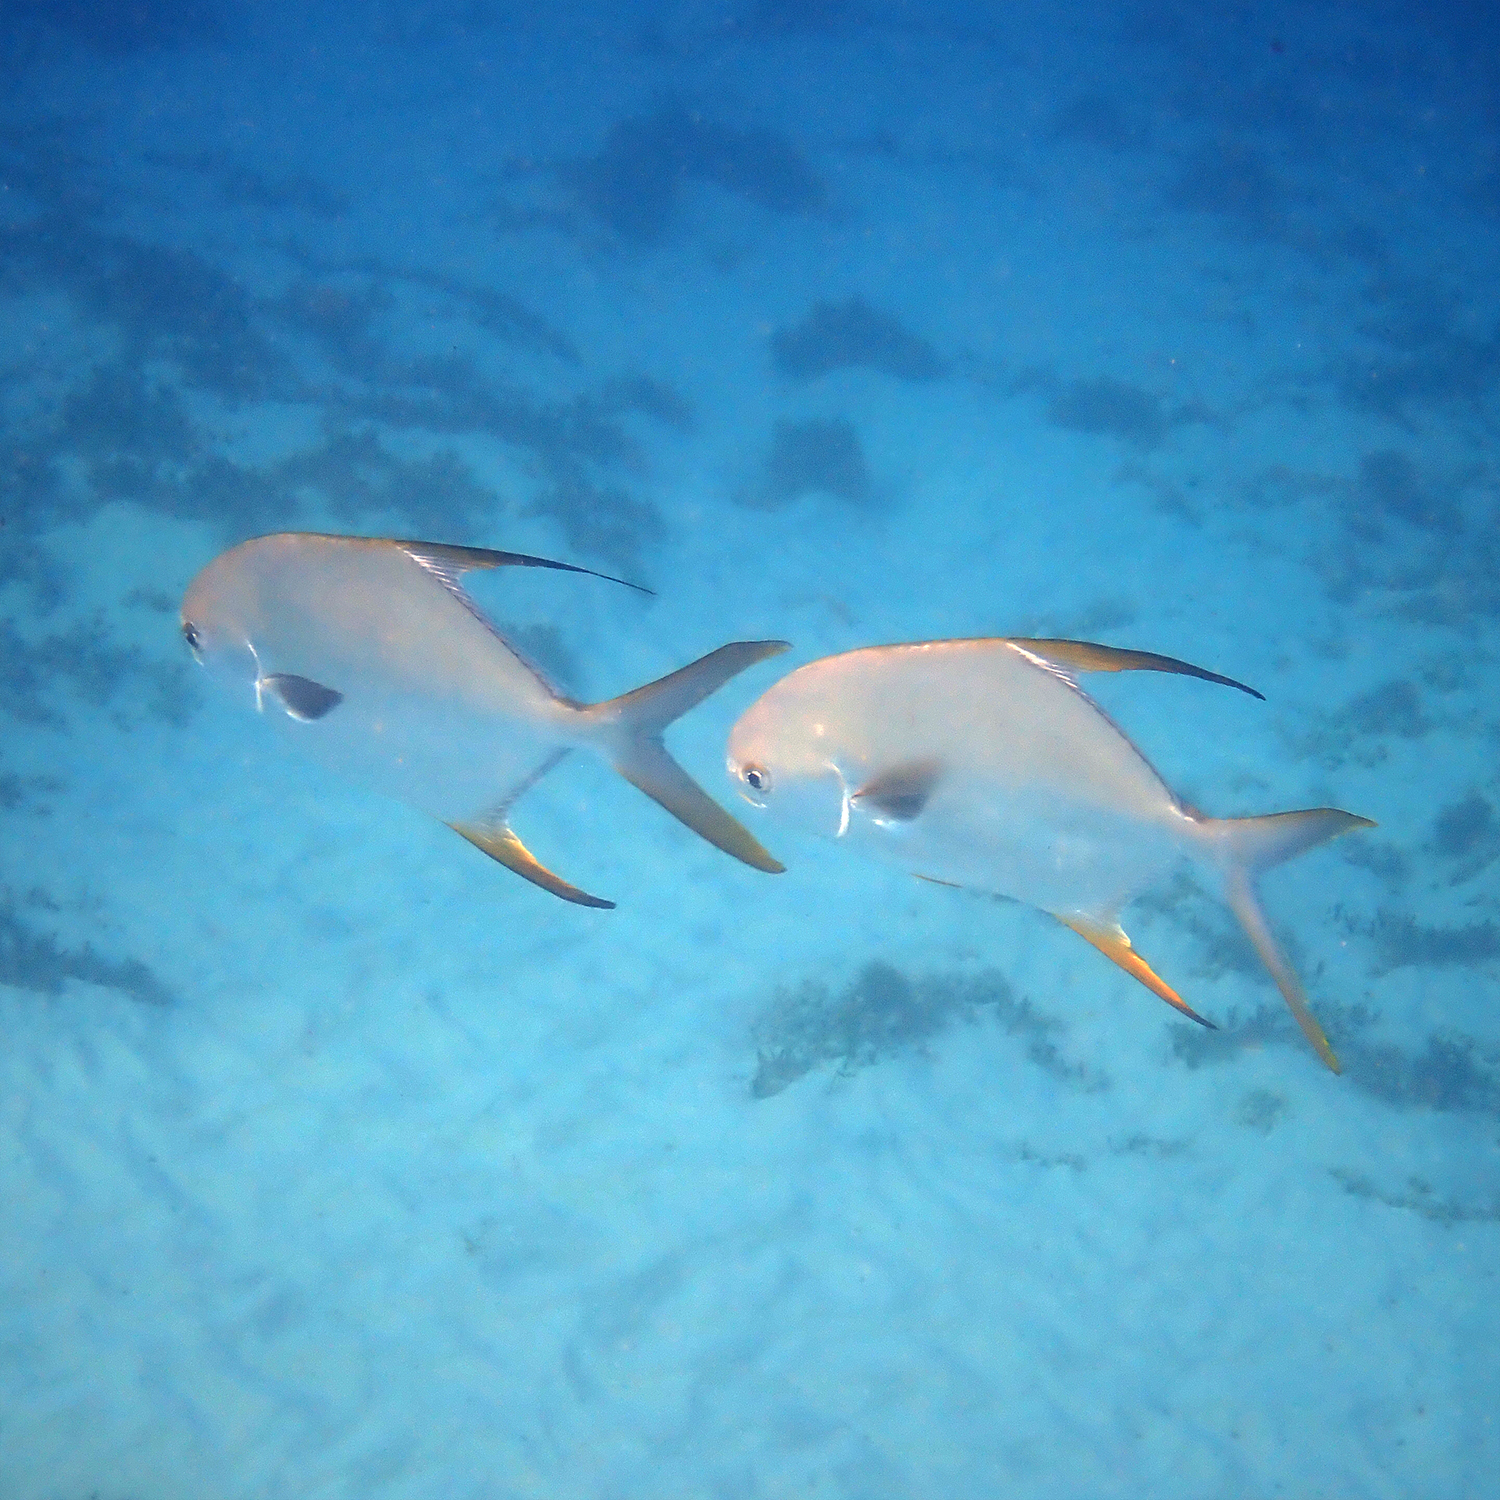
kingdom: Animalia
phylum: Chordata
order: Perciformes
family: Carangidae
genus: Trachinotus
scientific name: Trachinotus blochii
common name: Snubnose pompano
